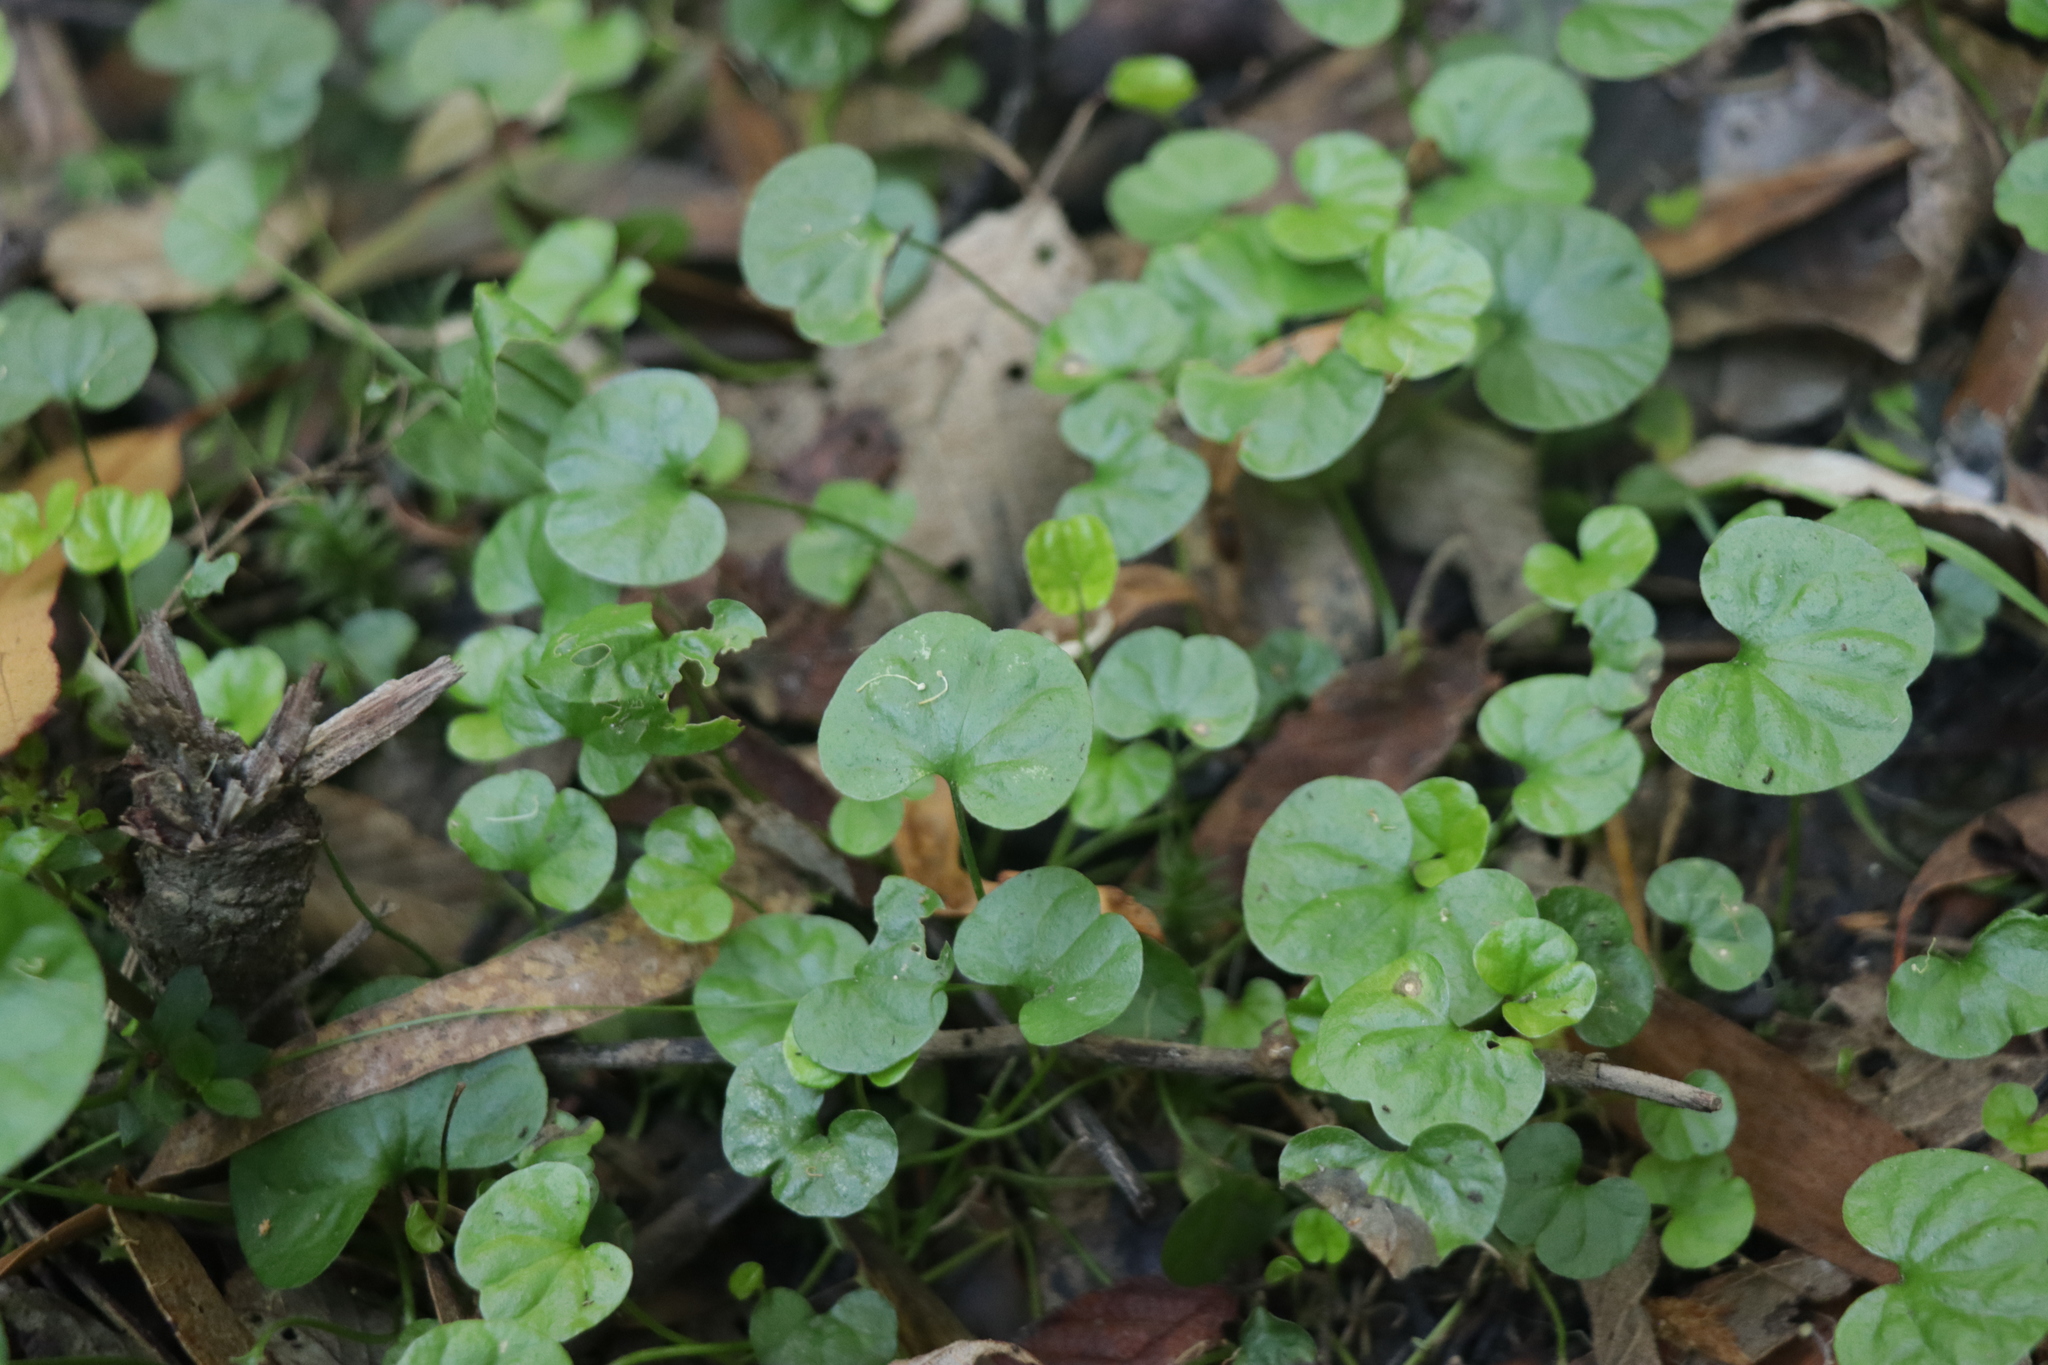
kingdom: Plantae
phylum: Tracheophyta
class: Magnoliopsida
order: Solanales
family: Convolvulaceae
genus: Dichondra
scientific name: Dichondra repens
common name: Kidneyweed
